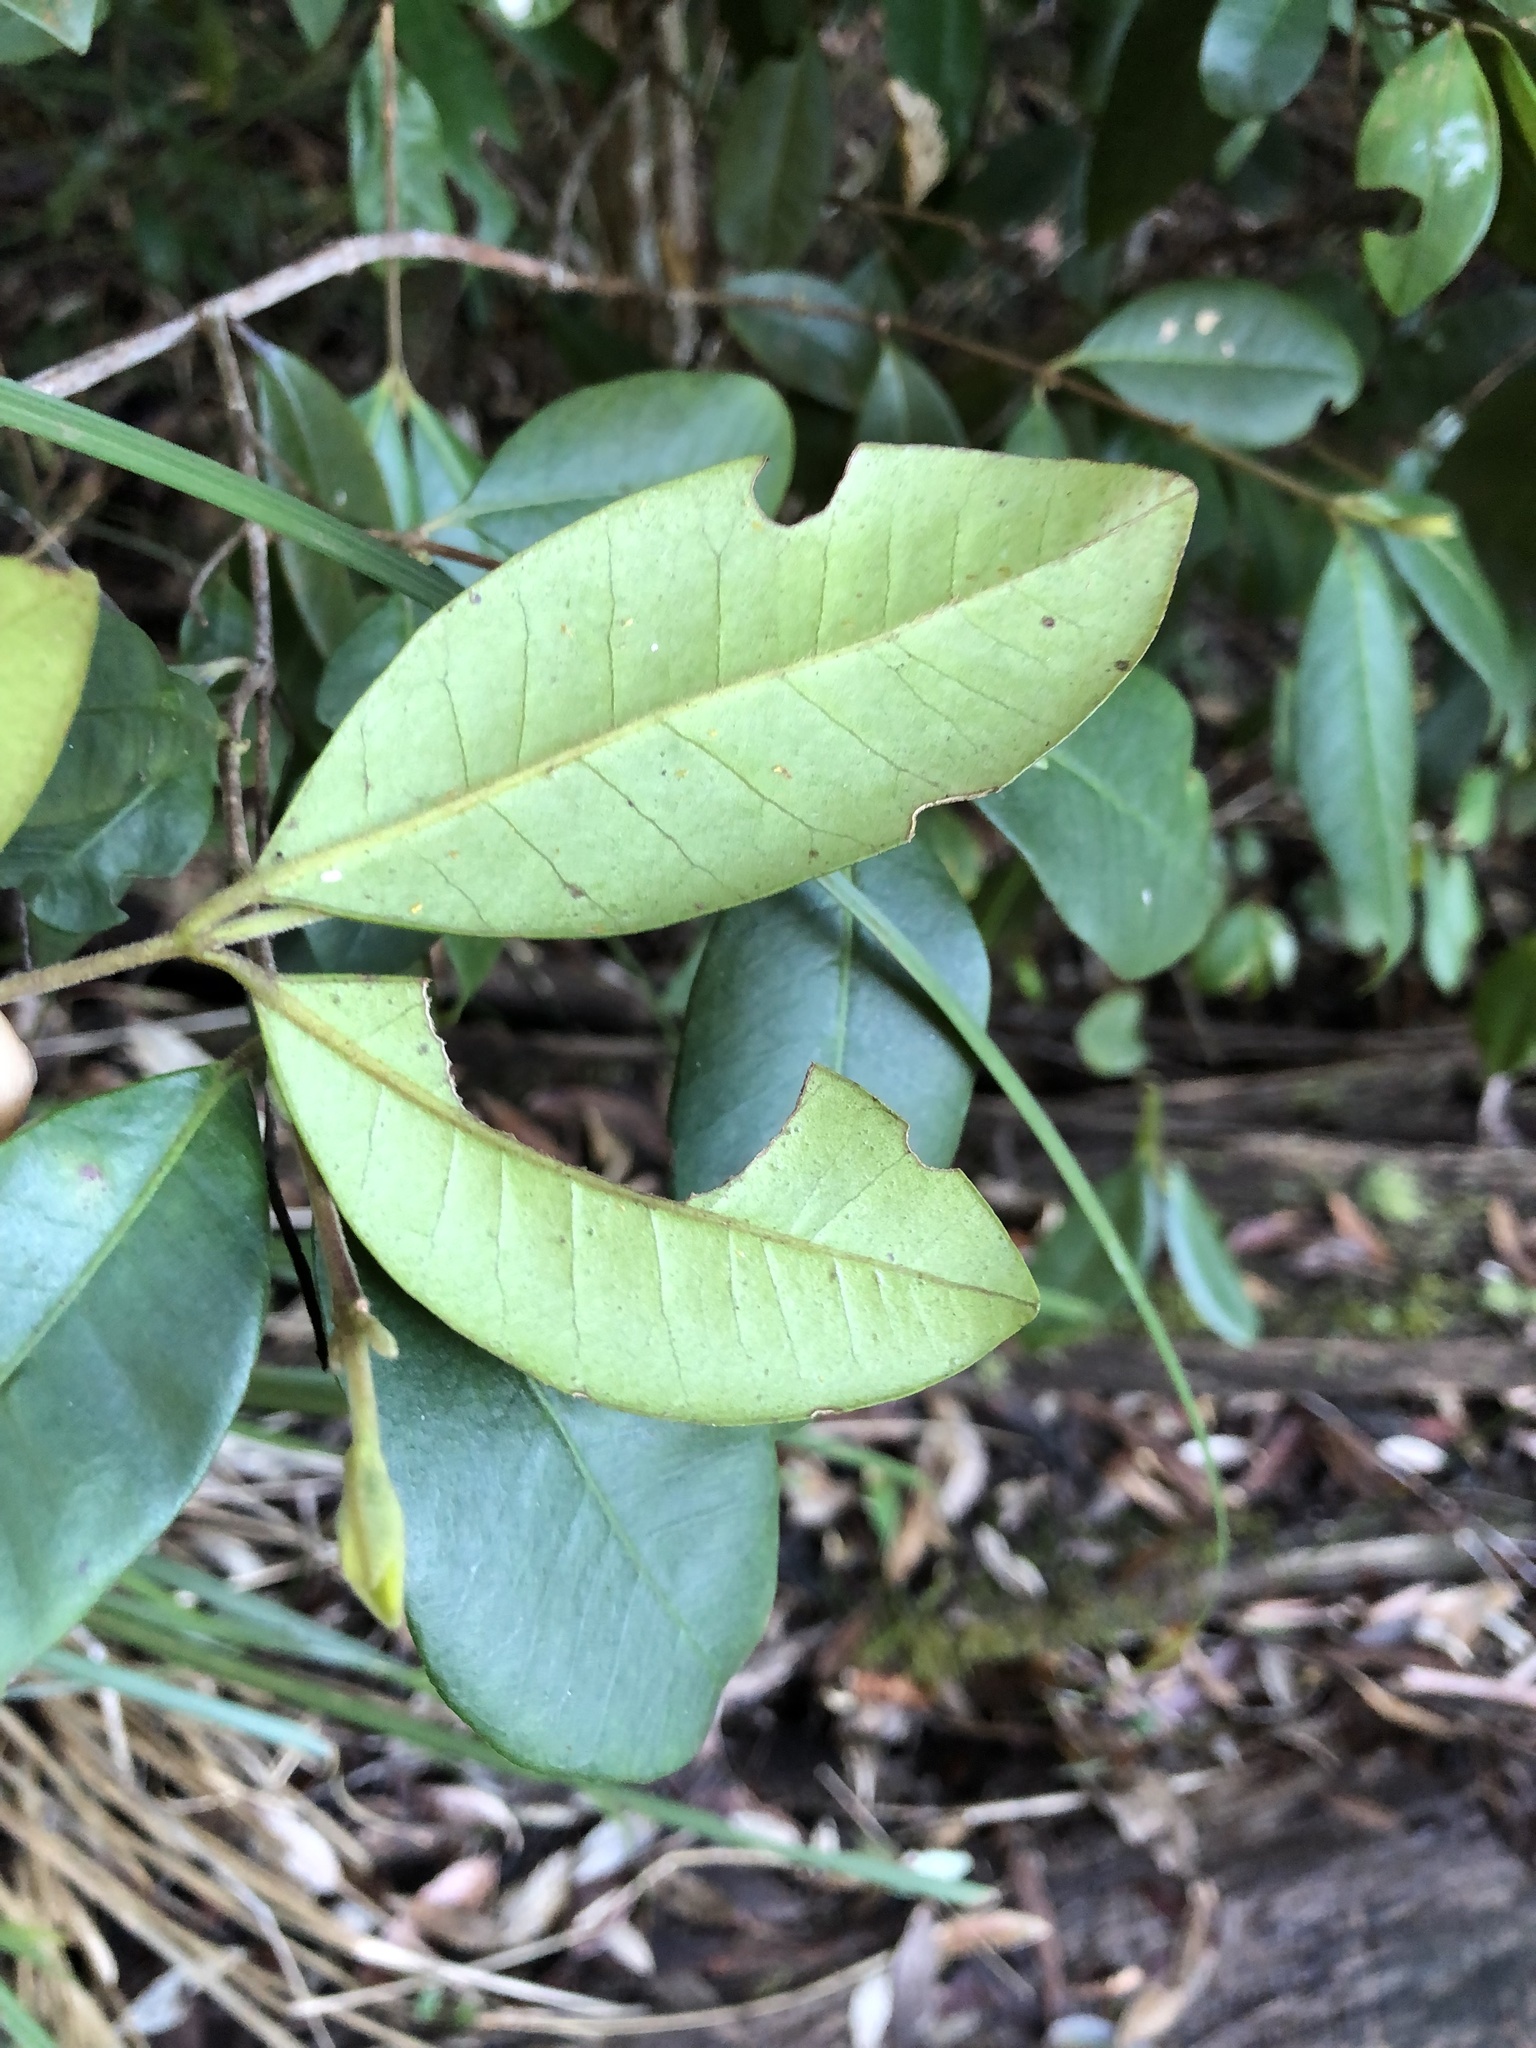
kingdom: Plantae
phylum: Tracheophyta
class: Magnoliopsida
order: Myrtales
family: Myrtaceae
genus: Lenwebbia
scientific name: Lenwebbia prominens
